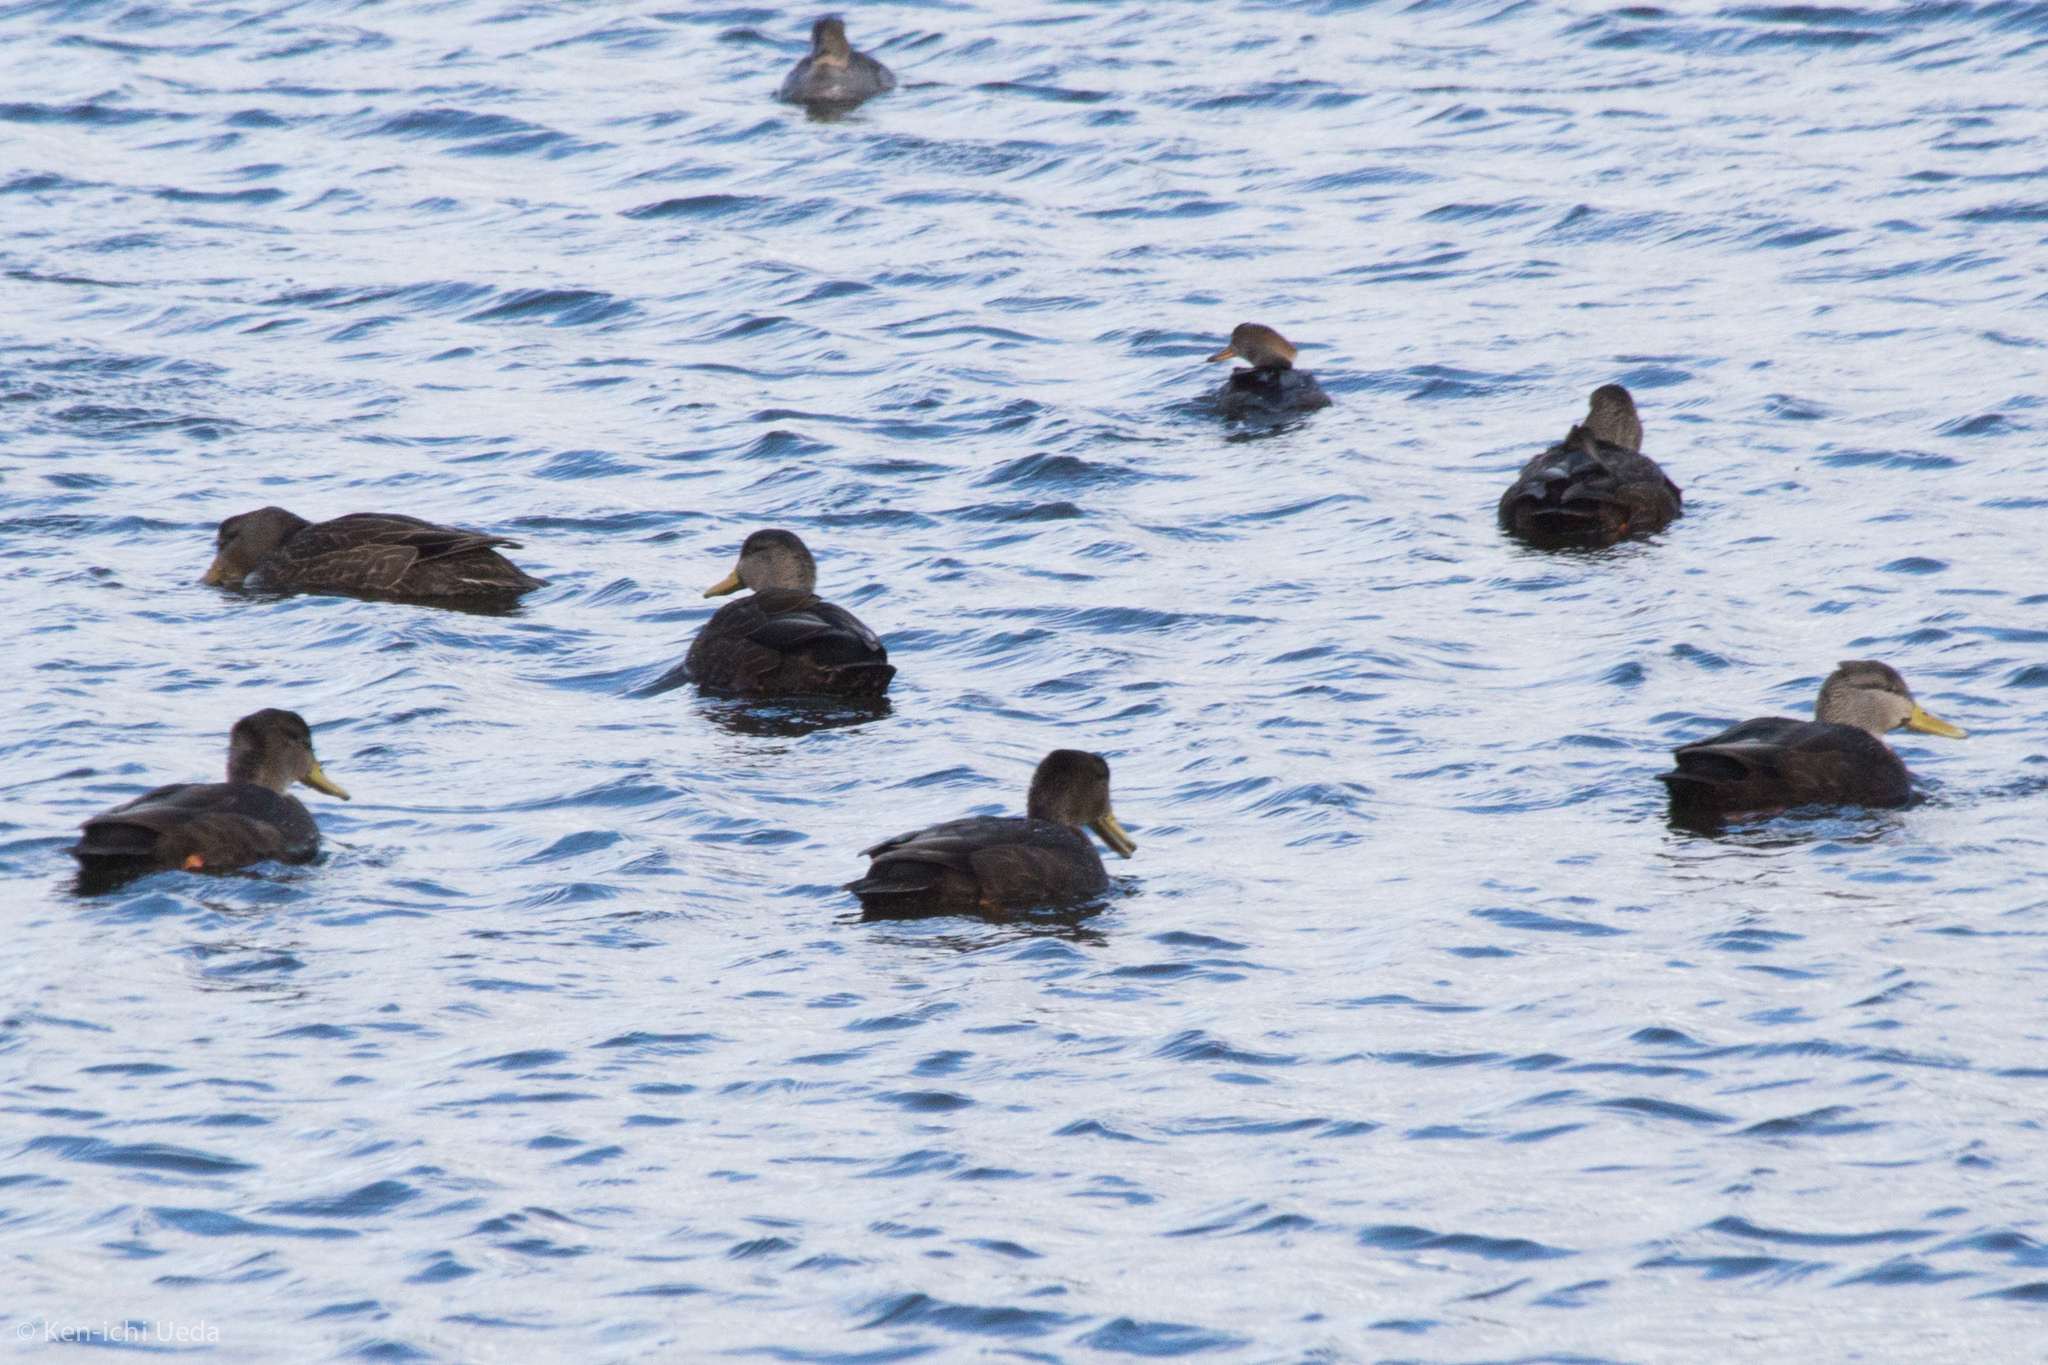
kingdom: Animalia
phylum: Chordata
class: Aves
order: Anseriformes
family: Anatidae
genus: Anas
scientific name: Anas rubripes
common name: American black duck
